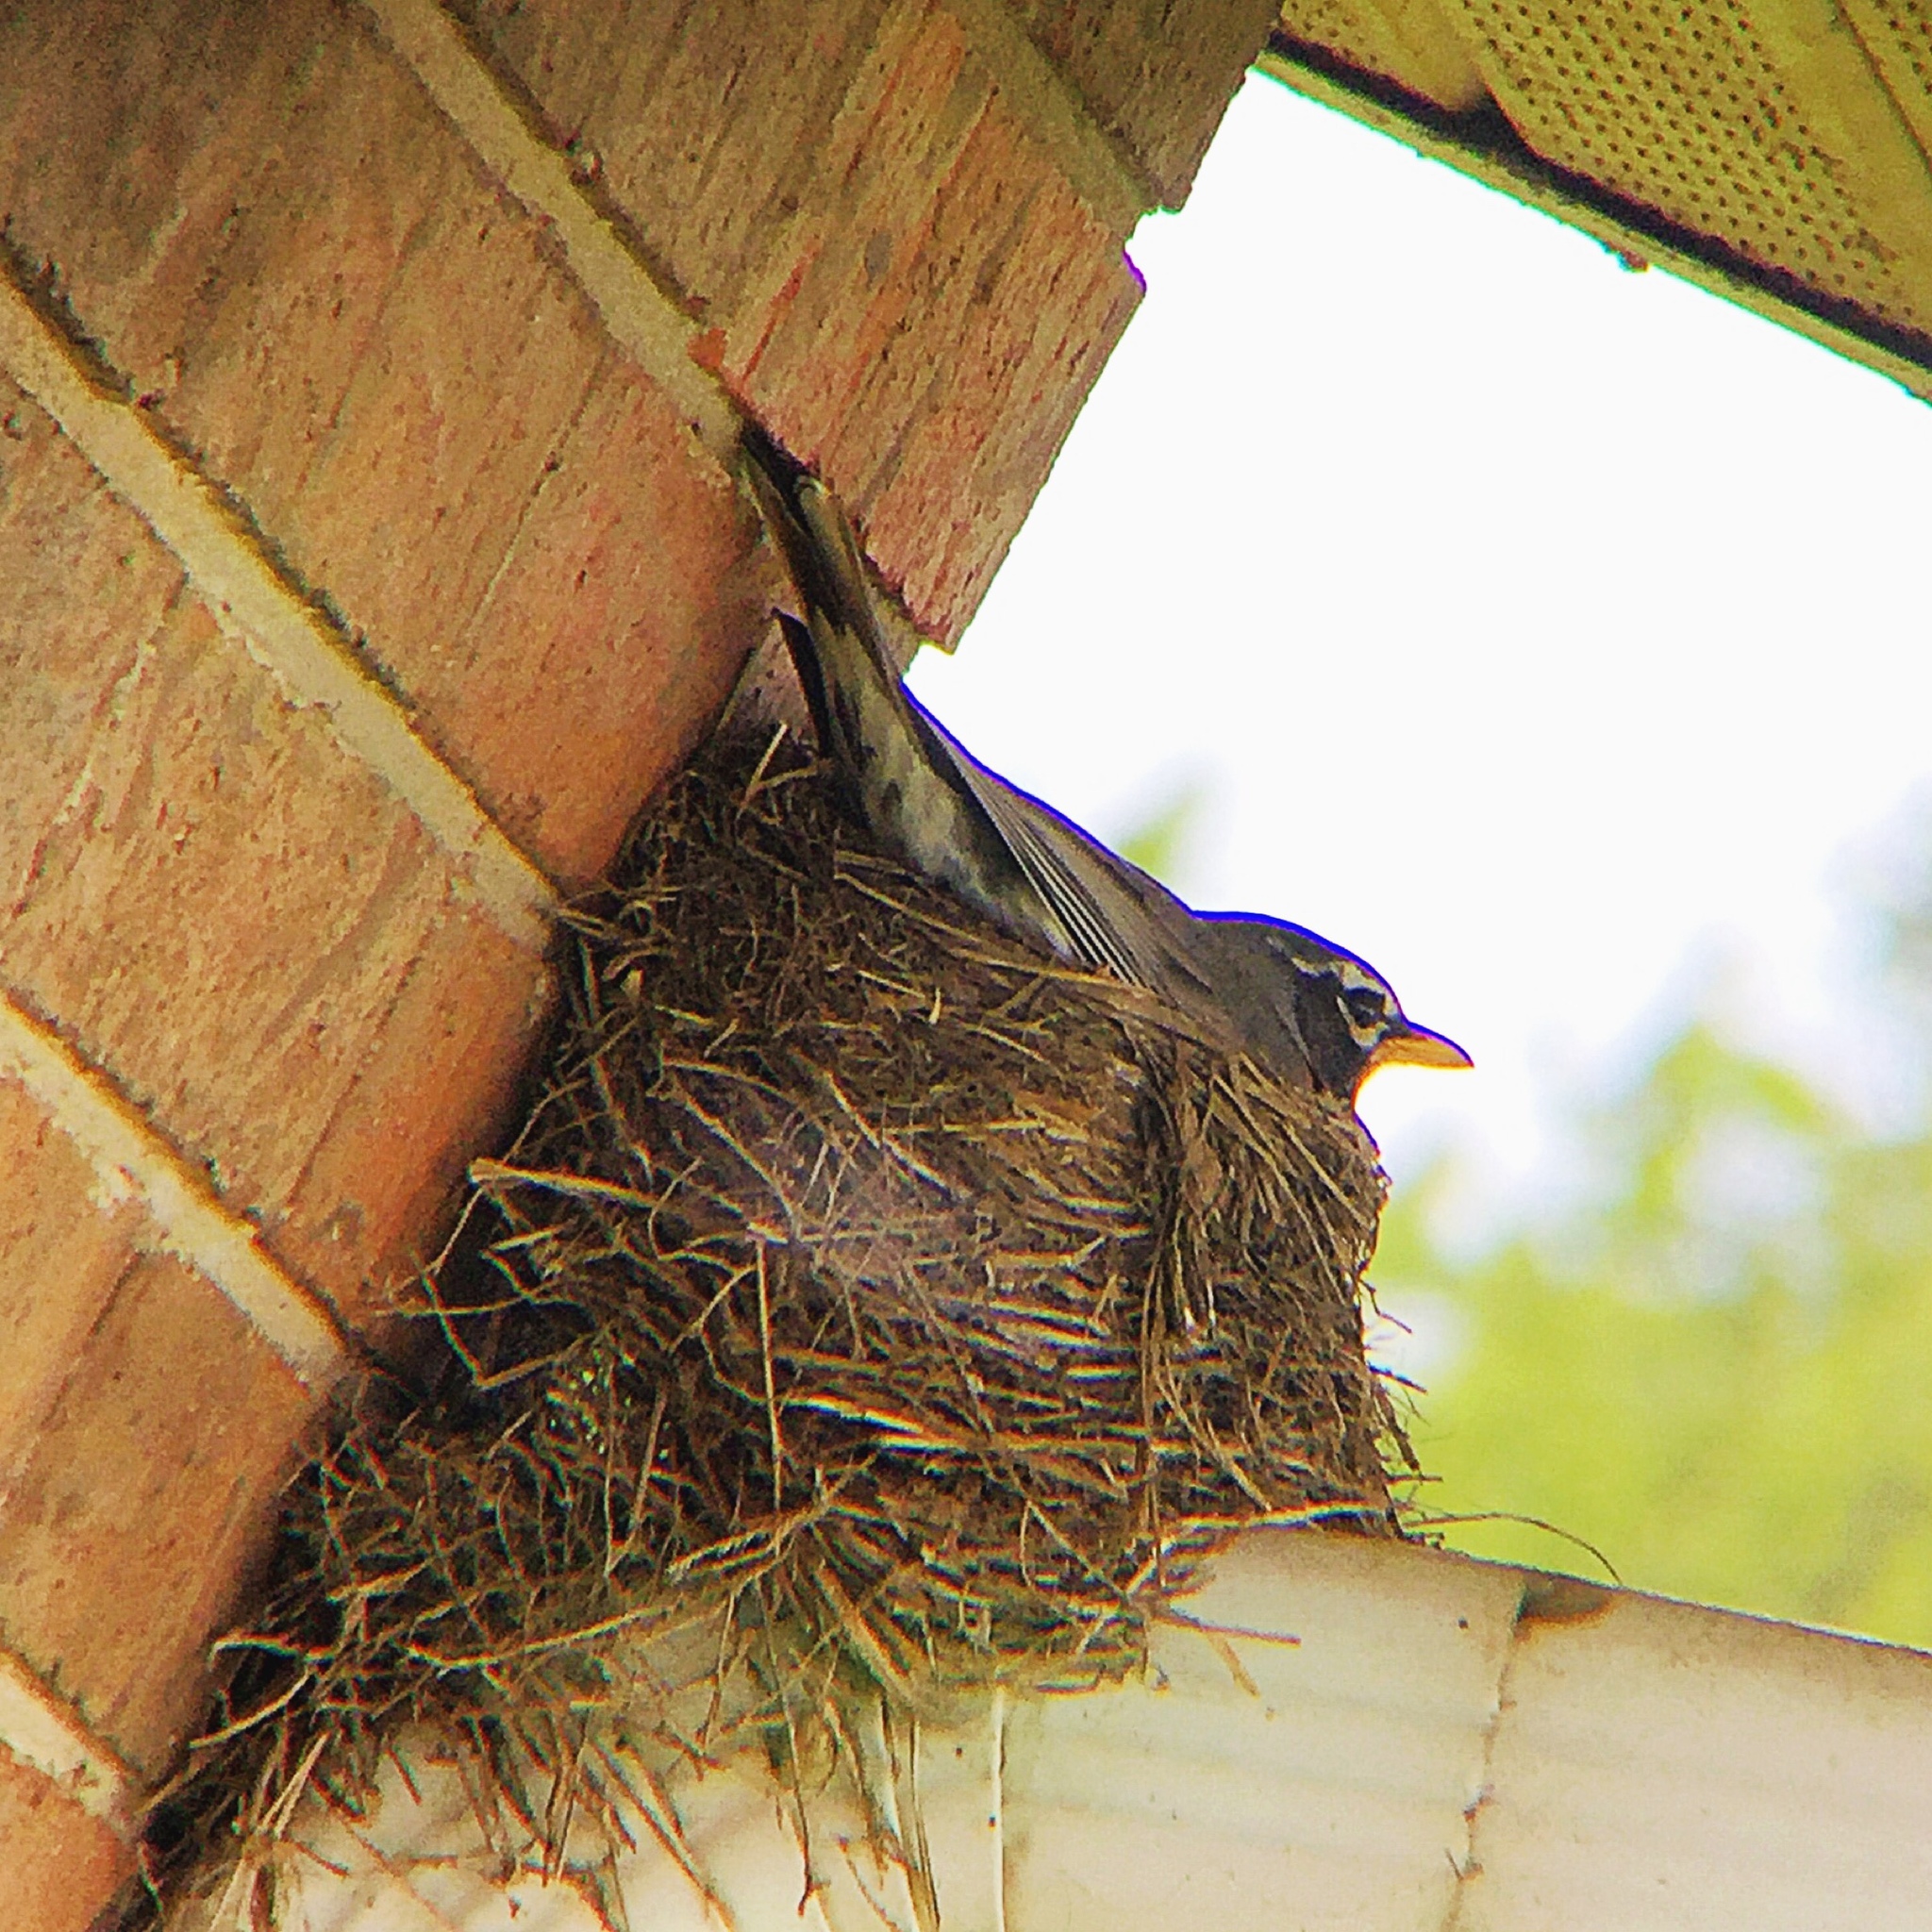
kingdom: Animalia
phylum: Chordata
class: Aves
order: Passeriformes
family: Turdidae
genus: Turdus
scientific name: Turdus migratorius
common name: American robin
